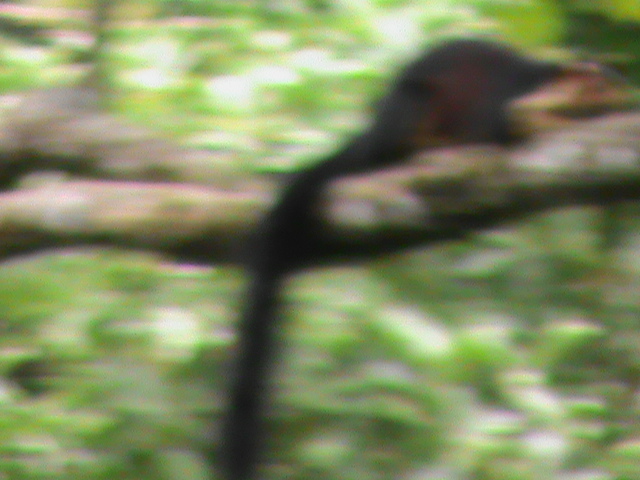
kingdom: Animalia
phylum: Chordata
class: Mammalia
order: Rodentia
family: Sciuridae
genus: Ratufa
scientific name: Ratufa indica
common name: Indian giant squirrel
